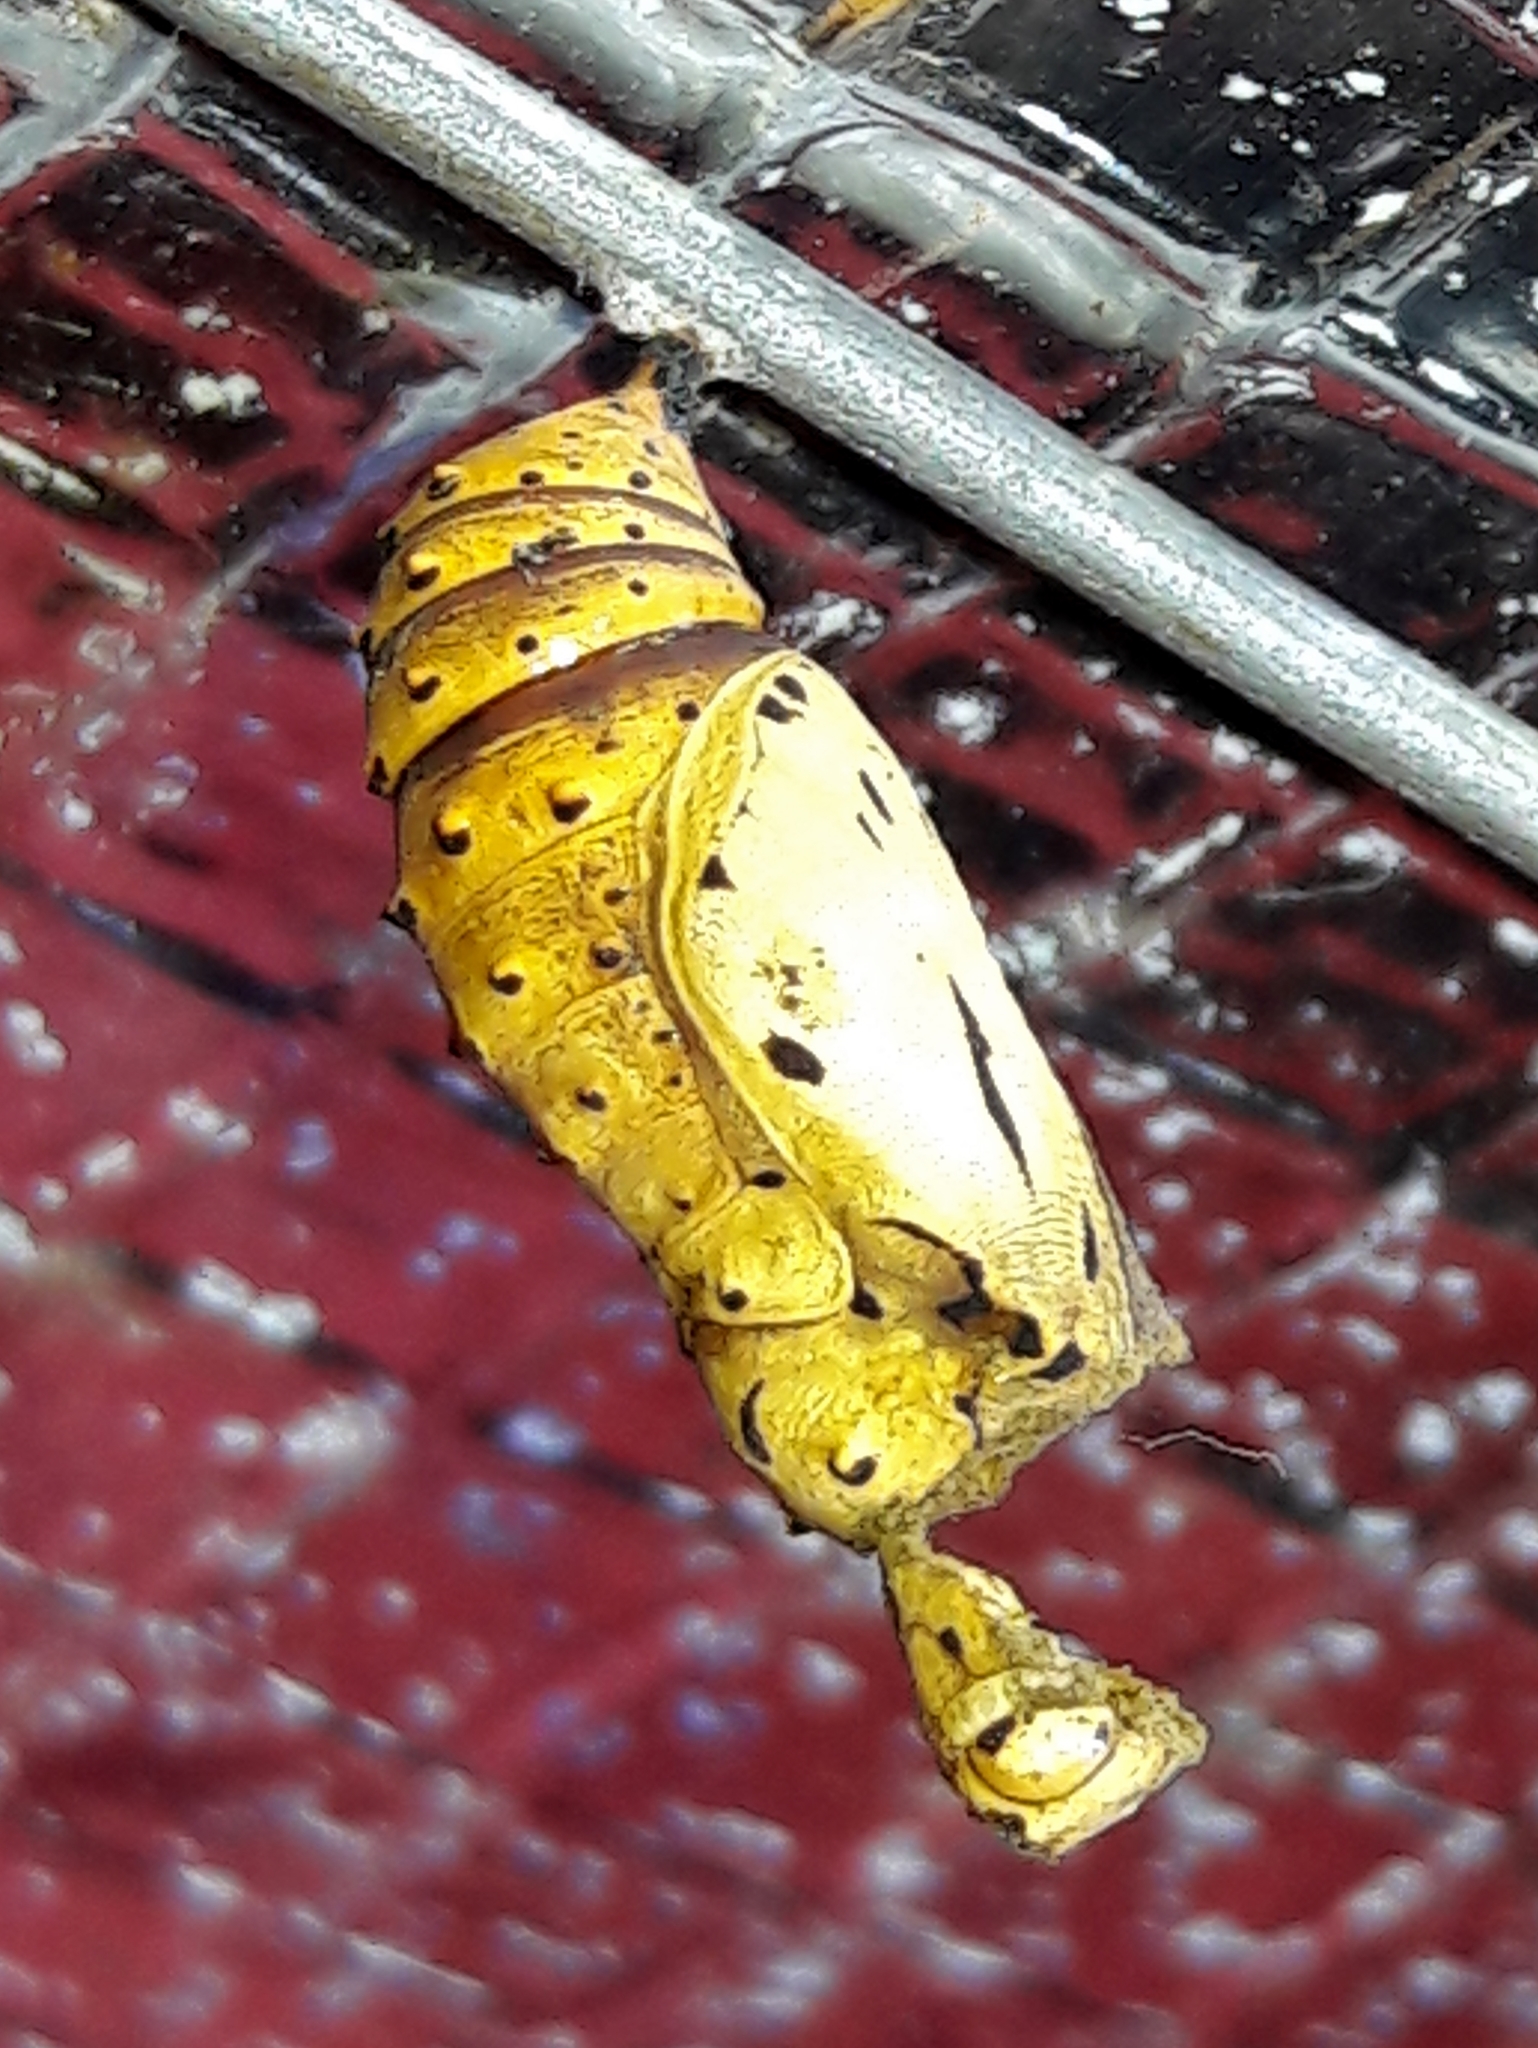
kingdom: Animalia
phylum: Arthropoda
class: Insecta
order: Lepidoptera
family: Nymphalidae
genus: Chlosyne
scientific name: Chlosyne lacinia
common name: Bordered patch
